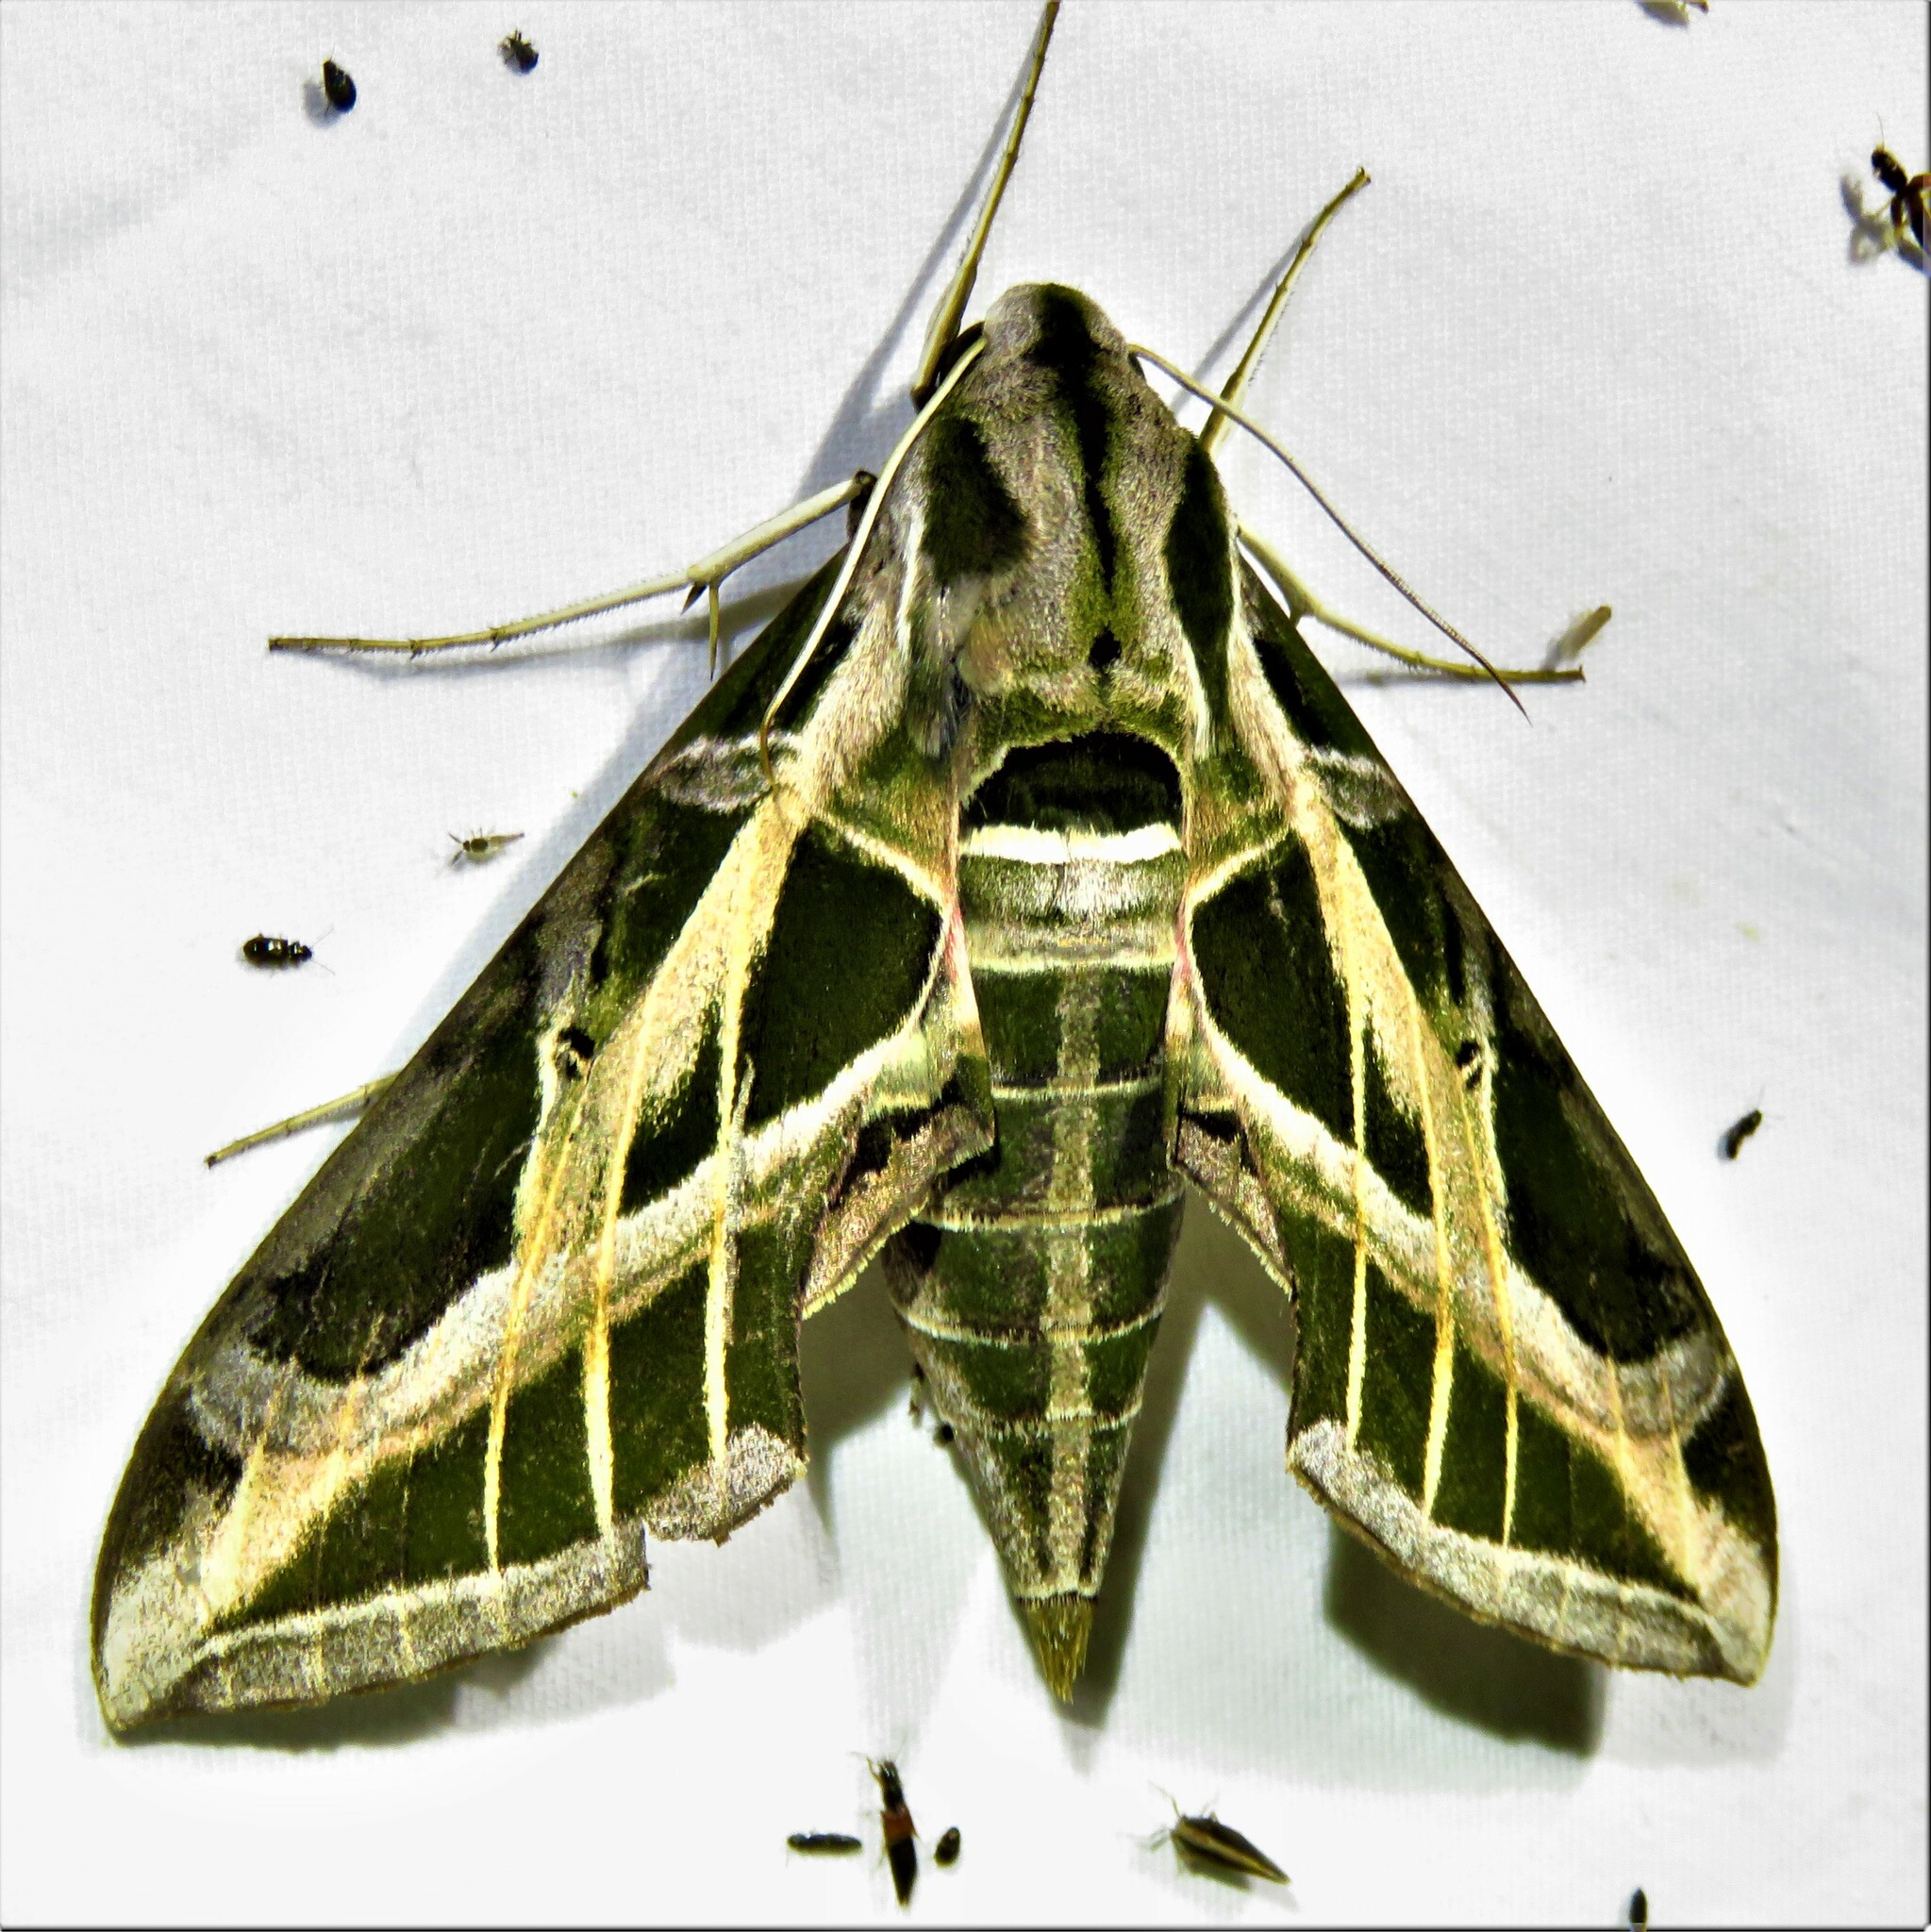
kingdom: Animalia
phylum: Arthropoda
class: Insecta
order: Lepidoptera
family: Sphingidae
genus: Eumorpha
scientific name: Eumorpha vitis
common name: Vine sphinx
